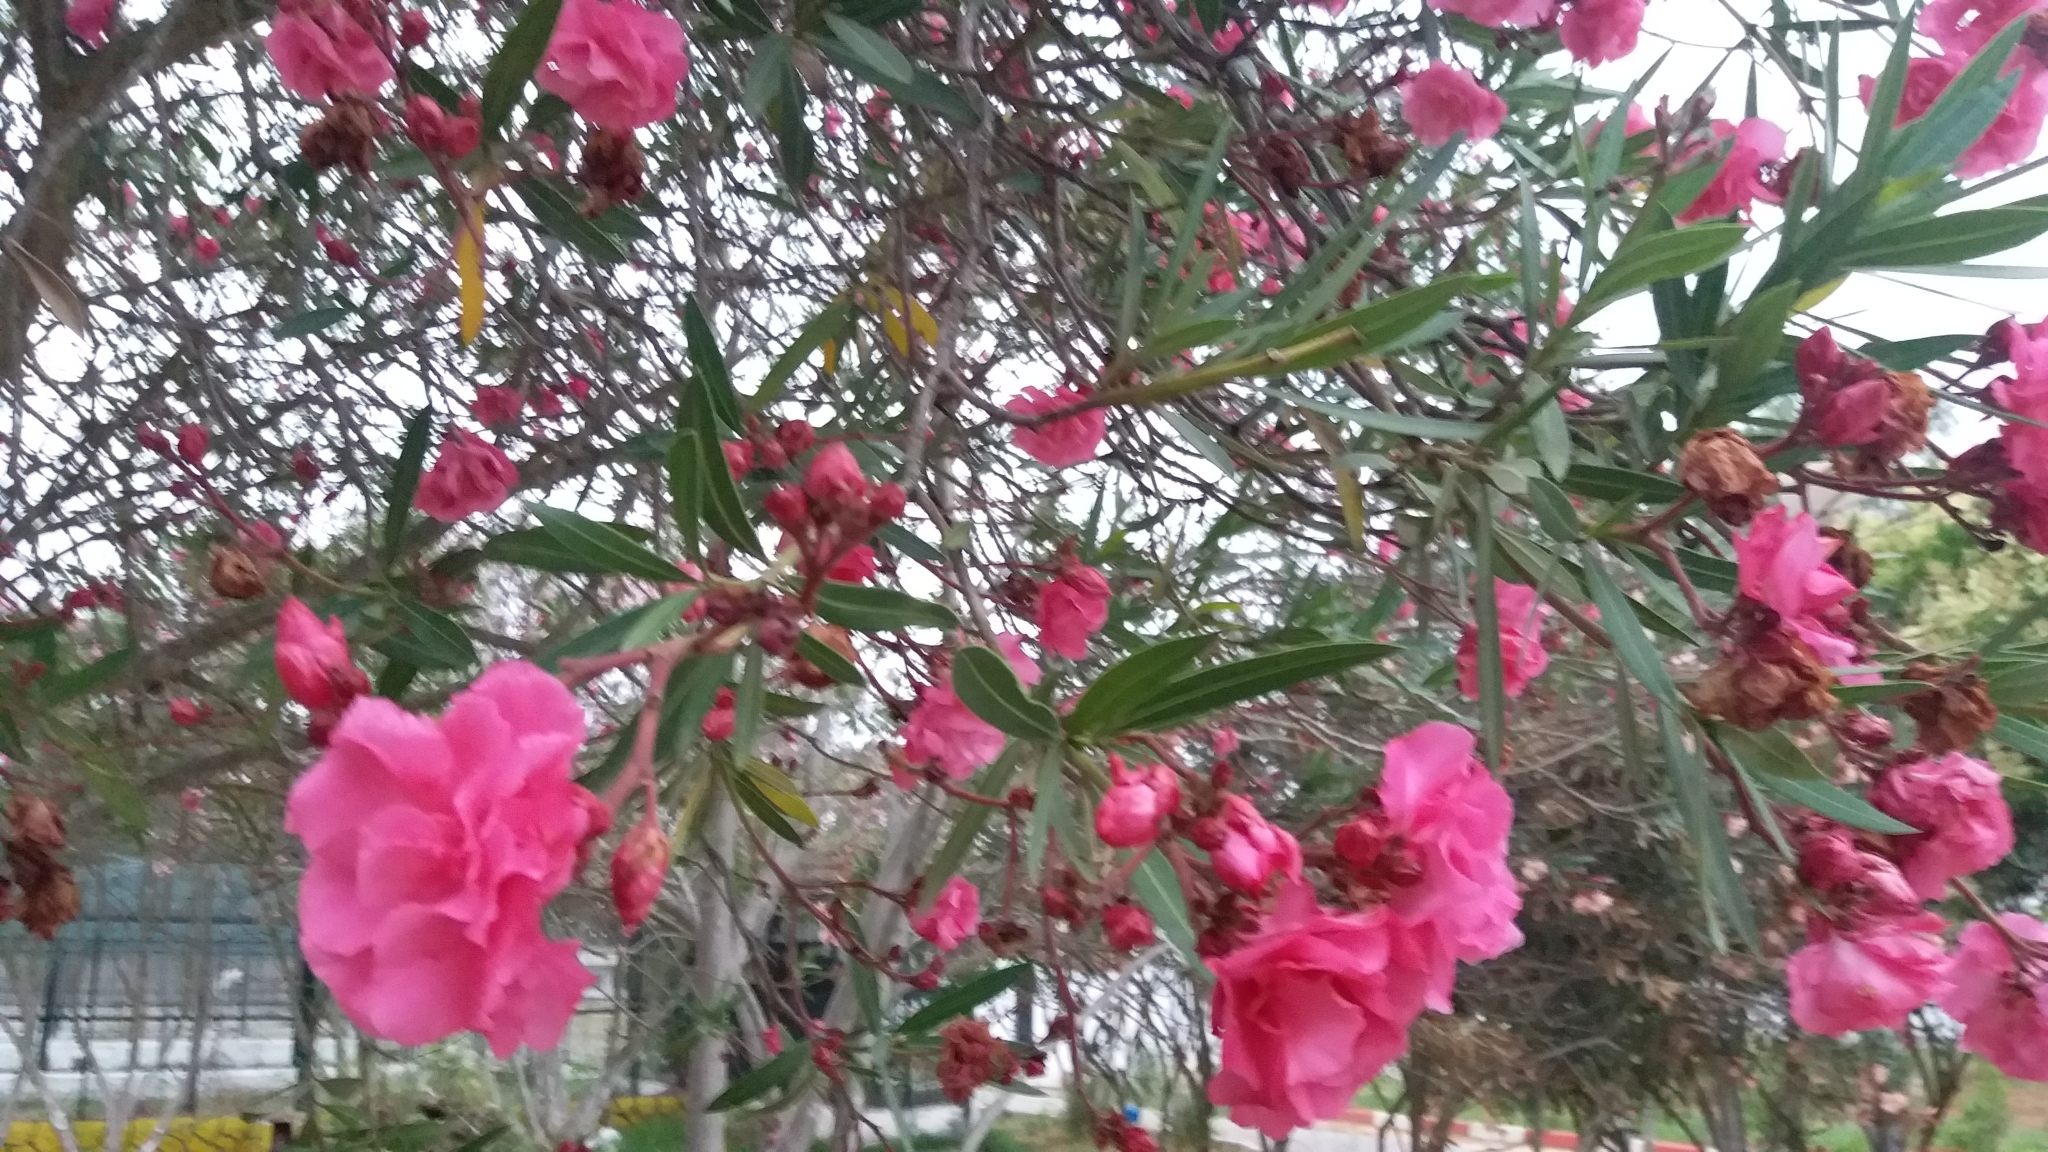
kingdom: Plantae
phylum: Tracheophyta
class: Magnoliopsida
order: Gentianales
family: Apocynaceae
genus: Nerium
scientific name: Nerium oleander
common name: Oleander
